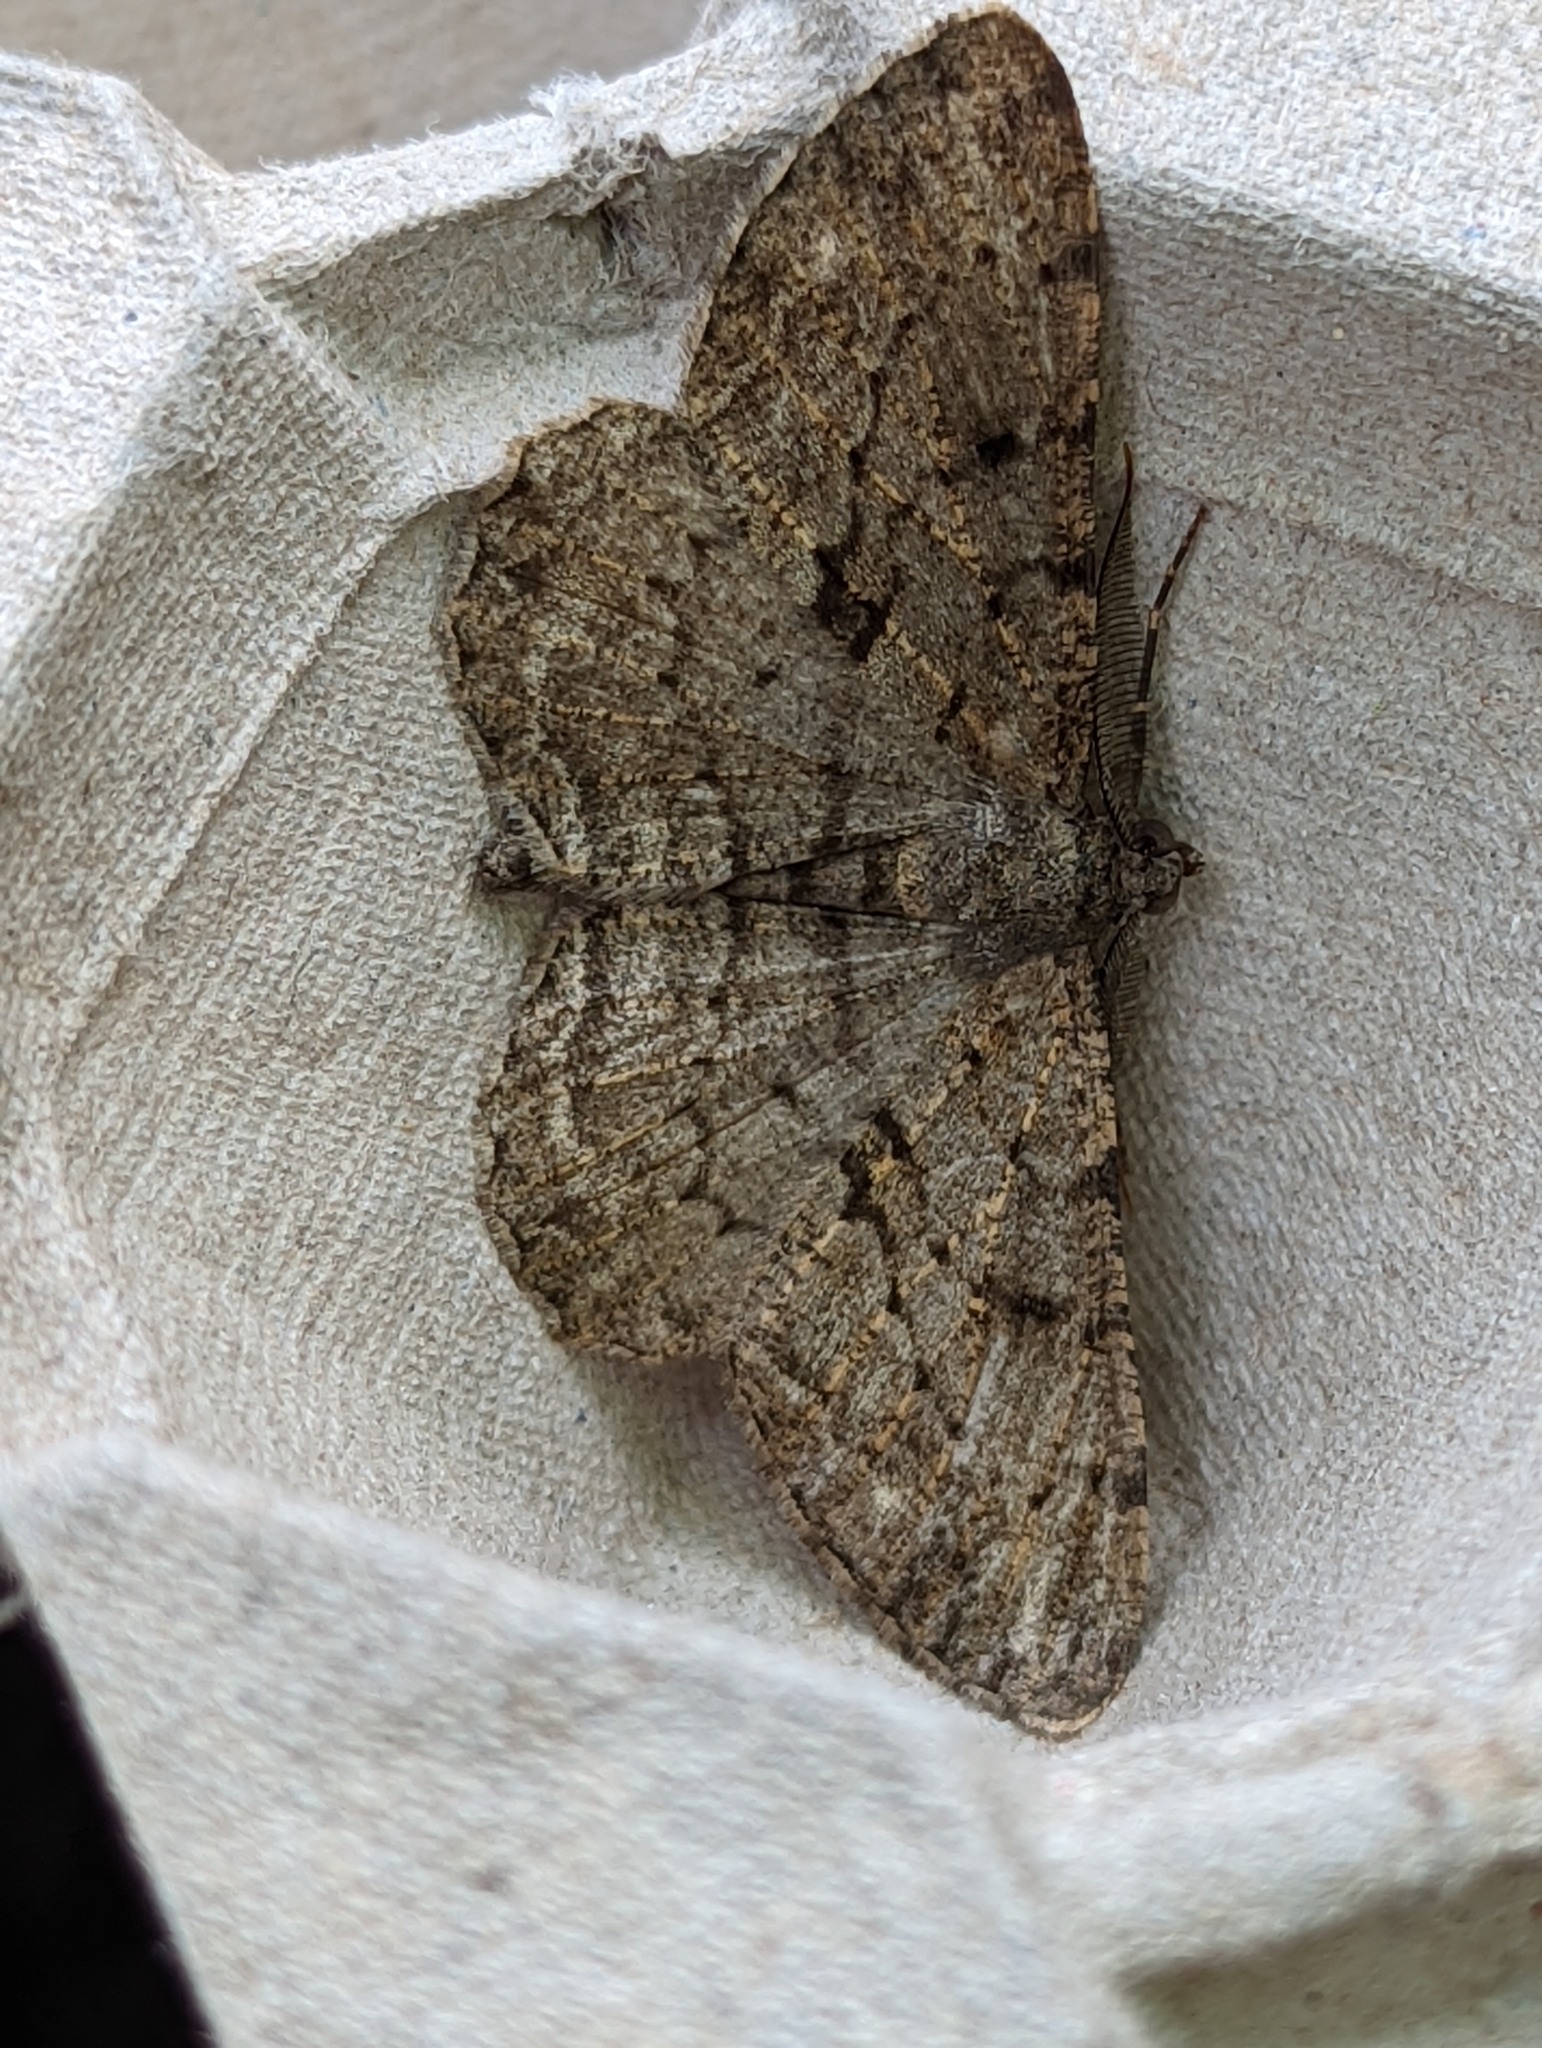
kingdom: Animalia
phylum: Arthropoda
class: Insecta
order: Lepidoptera
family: Geometridae
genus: Peribatodes
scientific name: Peribatodes rhomboidaria
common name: Willow beauty
